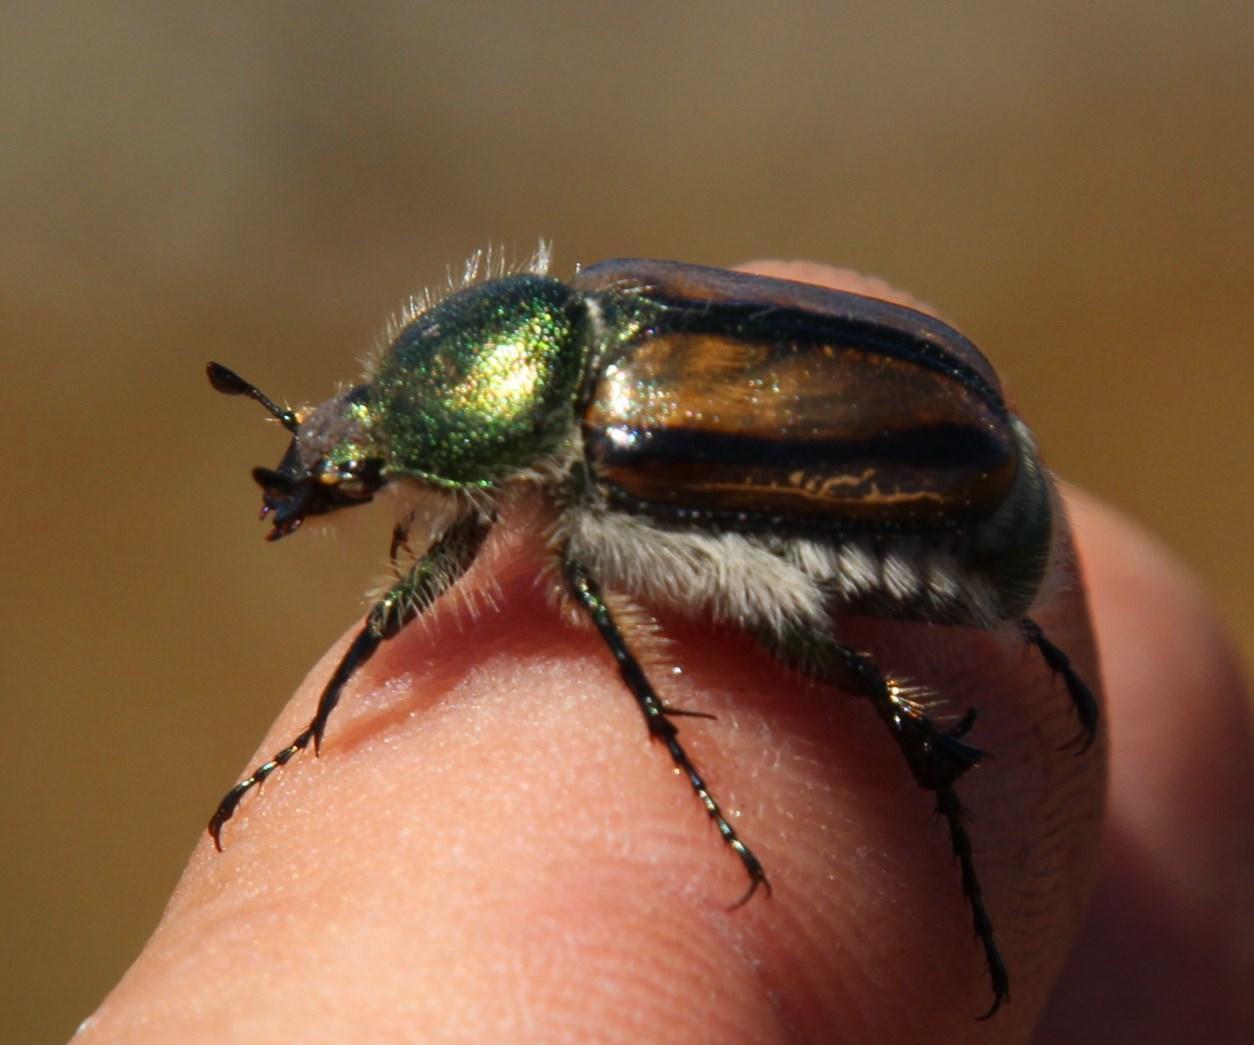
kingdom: Animalia
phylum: Arthropoda
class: Insecta
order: Coleoptera
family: Scarabaeidae
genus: Stegopterus
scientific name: Stegopterus vittatus
